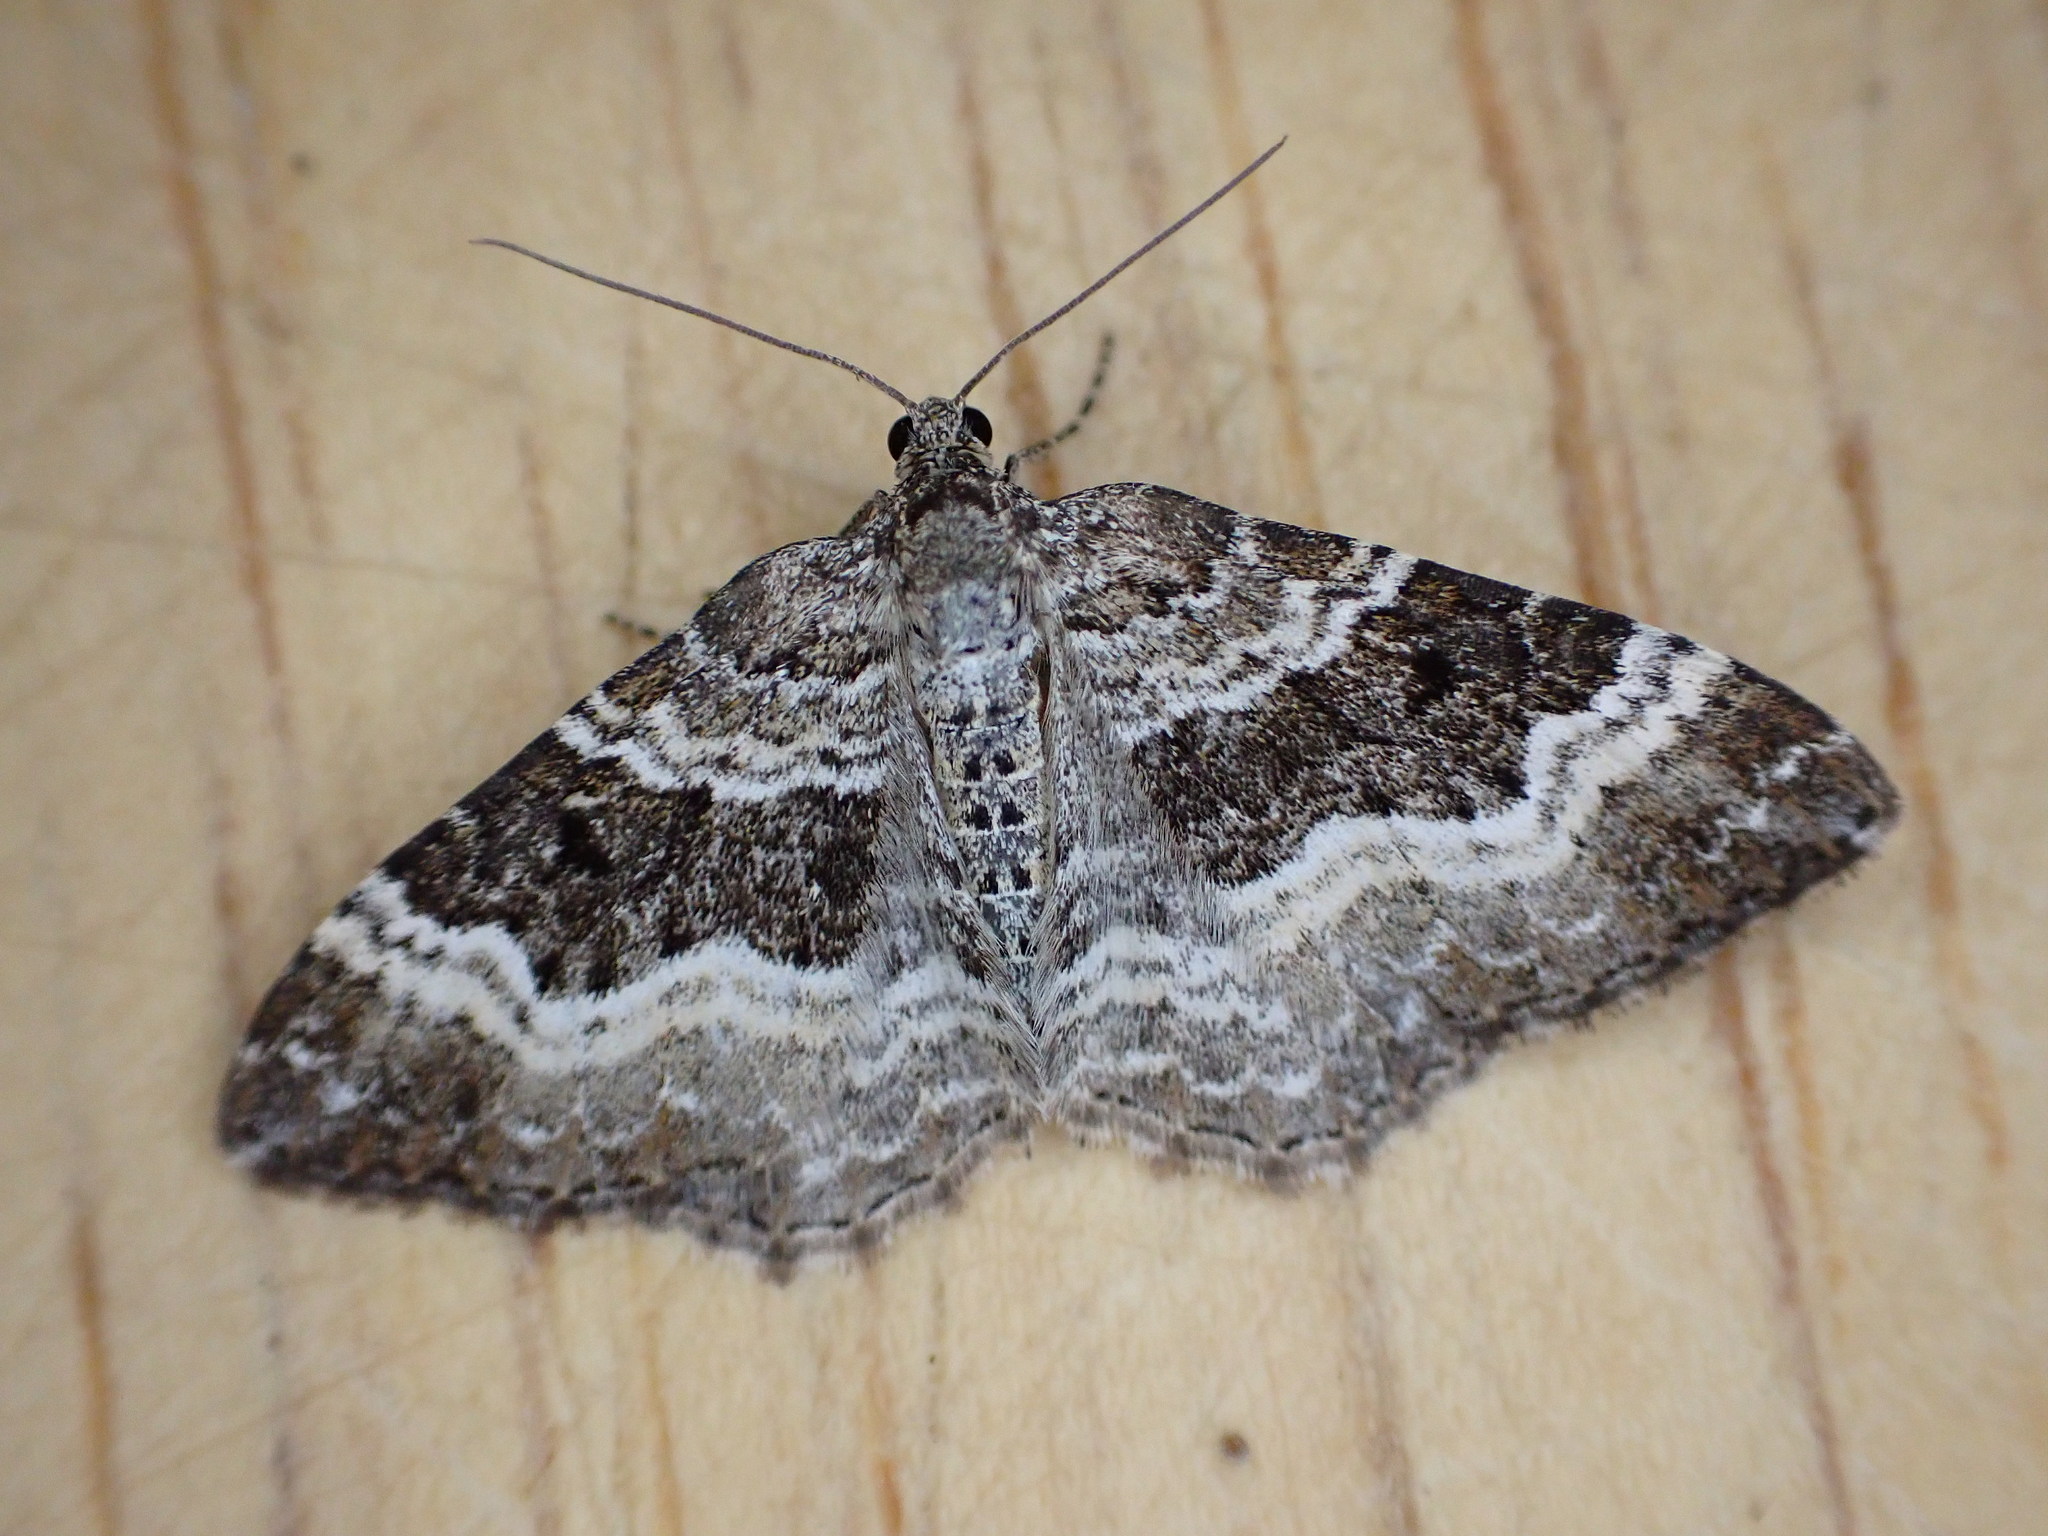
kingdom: Animalia
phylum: Arthropoda
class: Insecta
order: Lepidoptera
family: Geometridae
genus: Epirrhoe
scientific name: Epirrhoe alternata
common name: Common carpet
